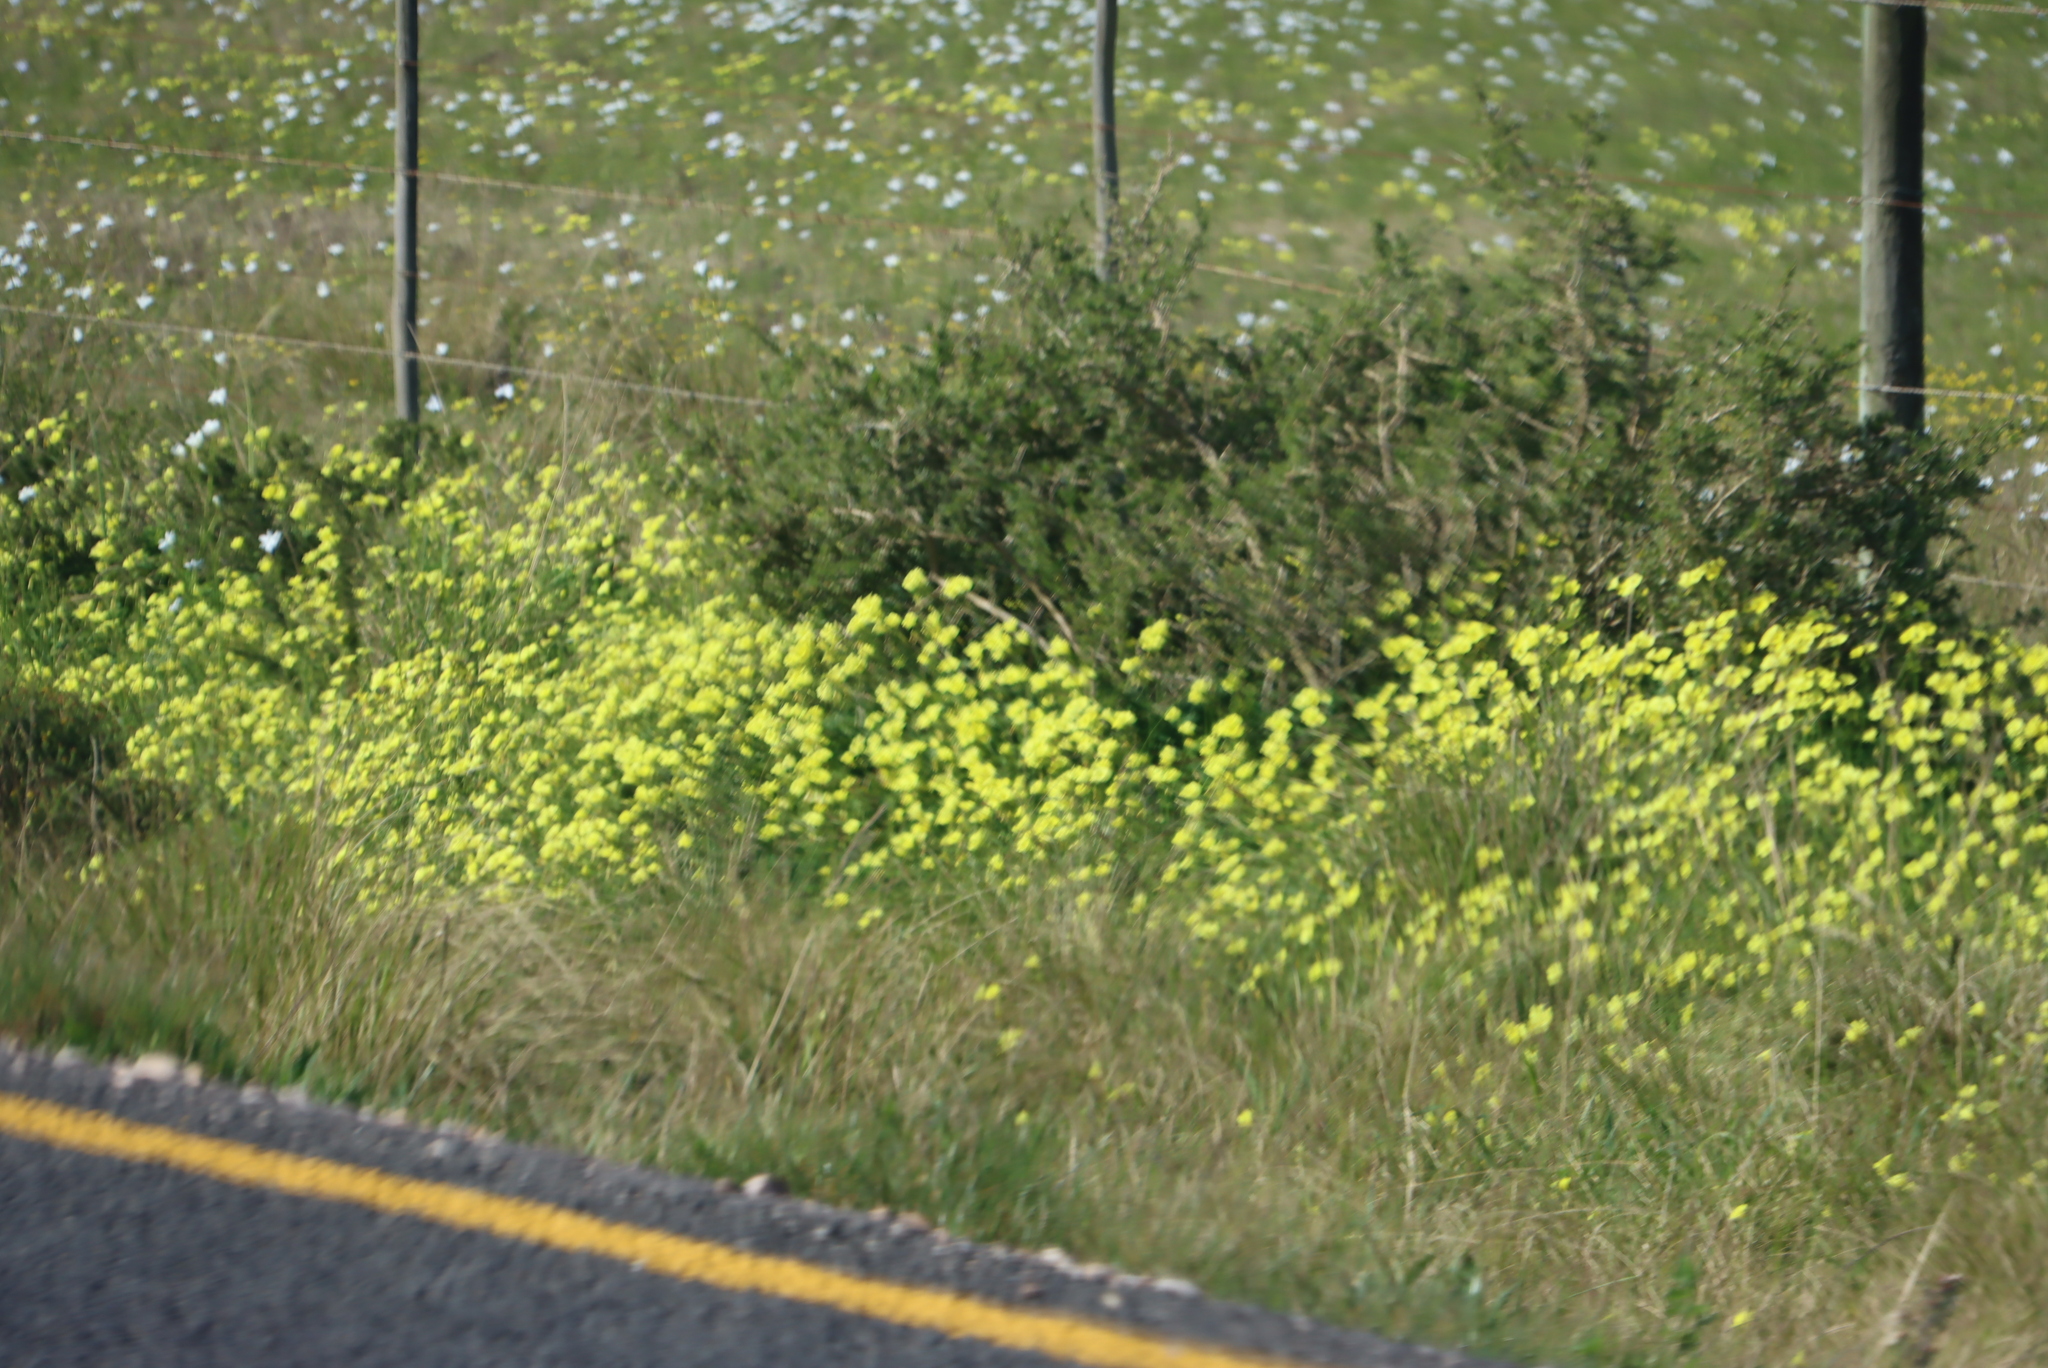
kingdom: Plantae
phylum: Tracheophyta
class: Magnoliopsida
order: Oxalidales
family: Oxalidaceae
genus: Oxalis
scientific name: Oxalis pes-caprae
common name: Bermuda-buttercup
